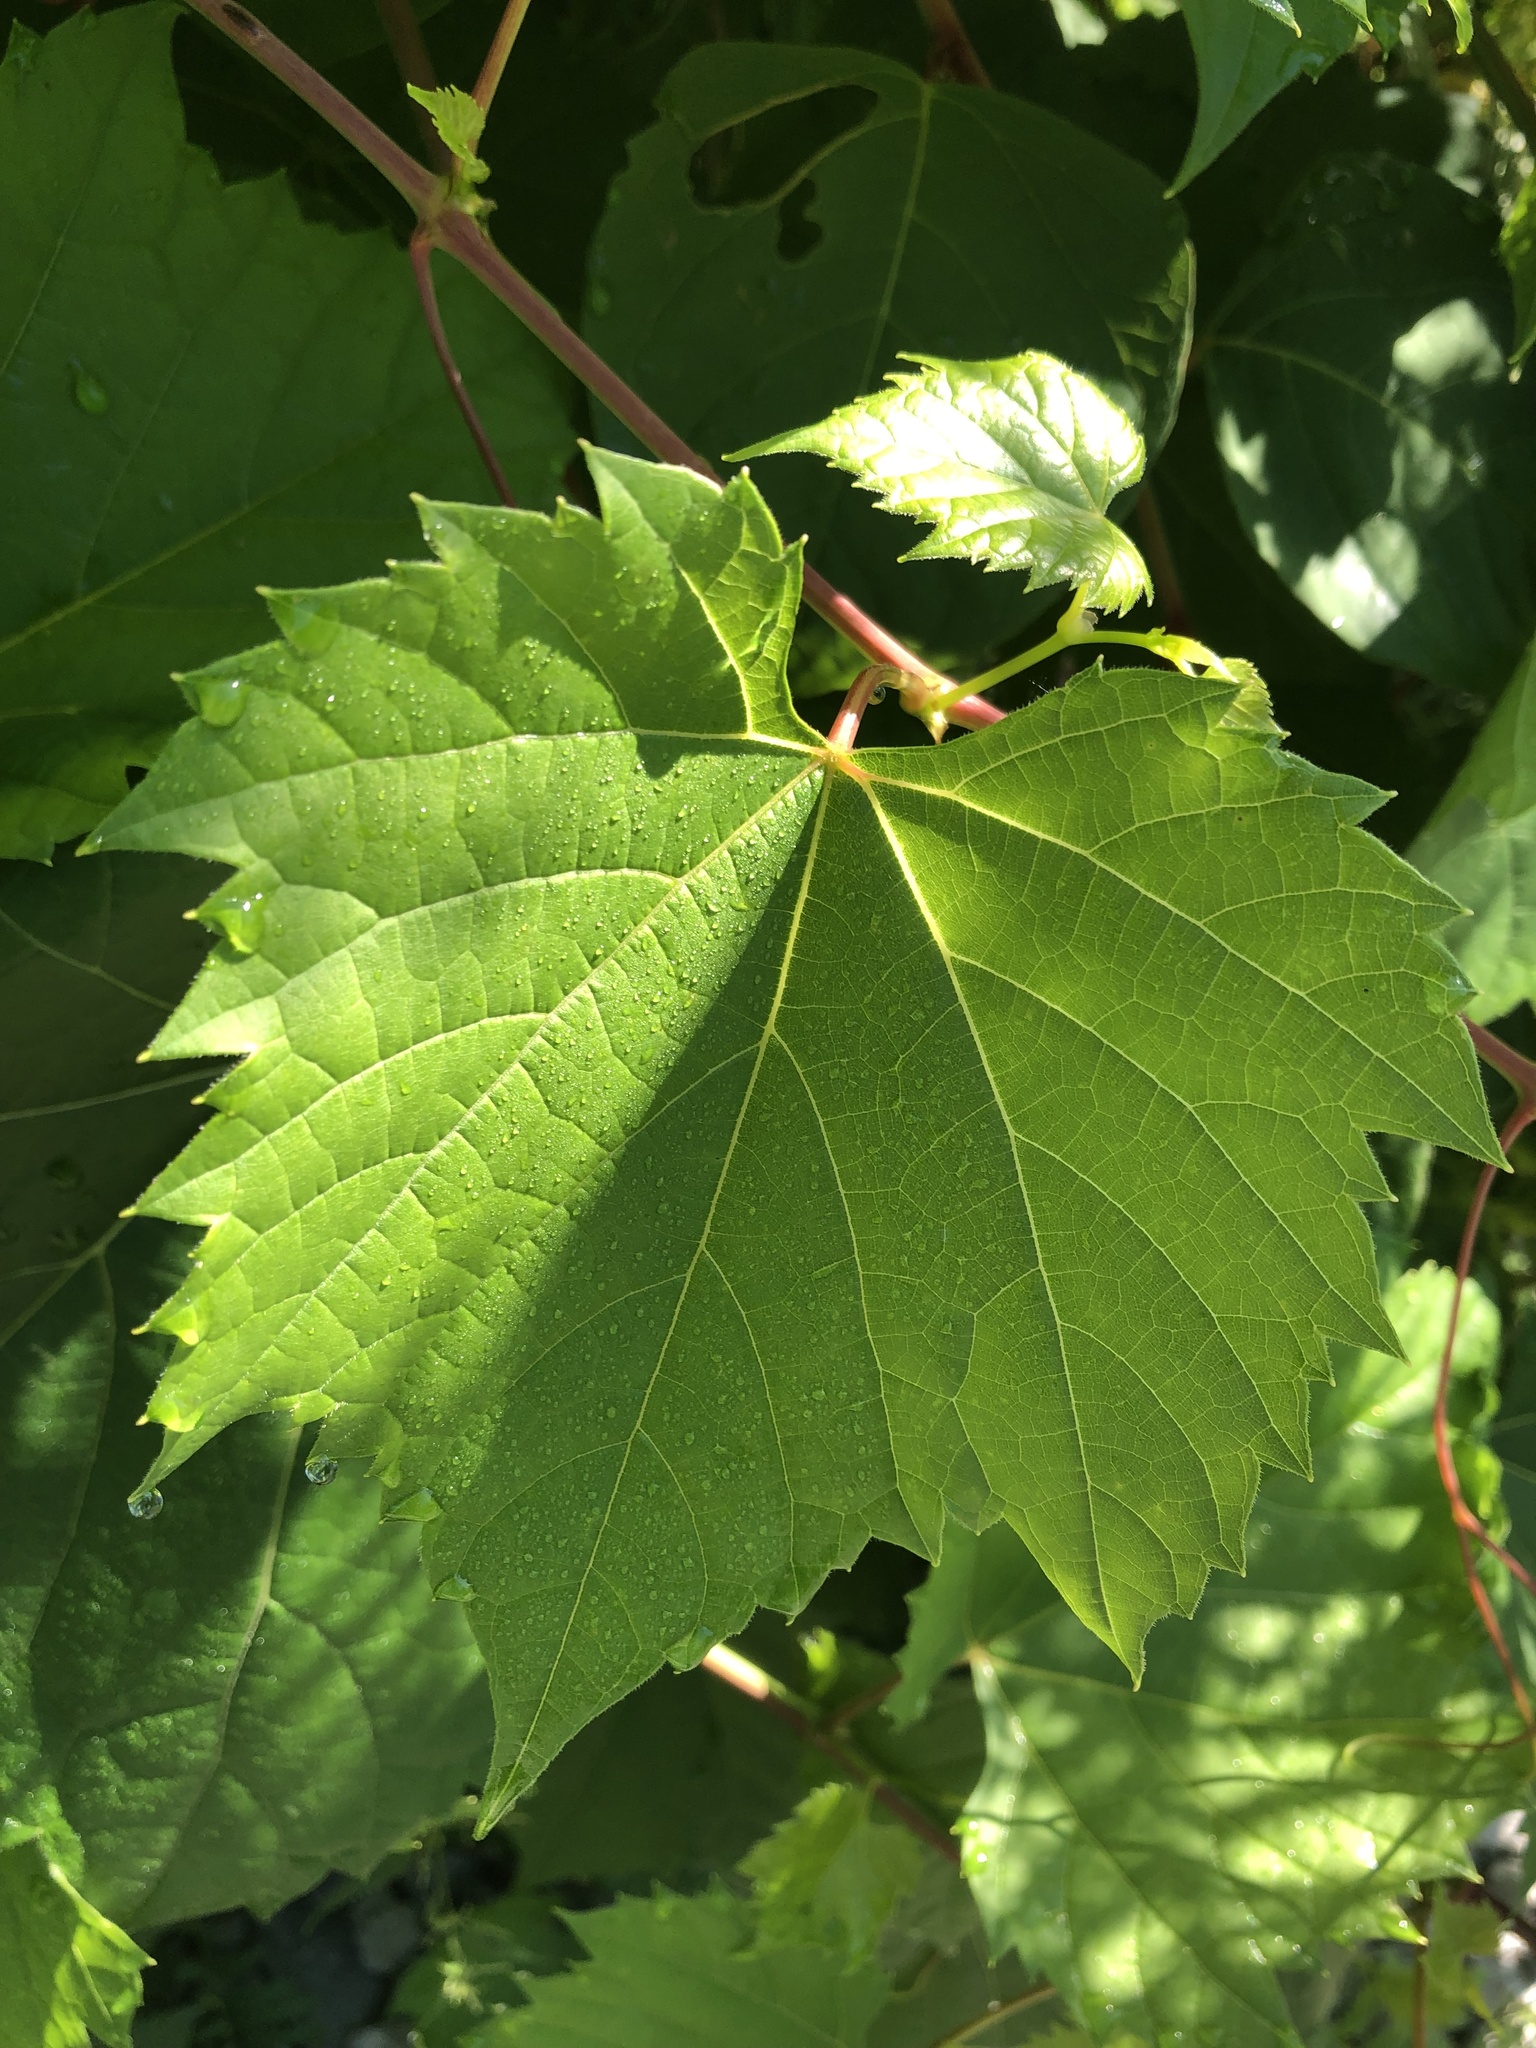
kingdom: Plantae
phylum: Tracheophyta
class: Magnoliopsida
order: Vitales
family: Vitaceae
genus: Vitis
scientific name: Vitis riparia
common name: Frost grape
